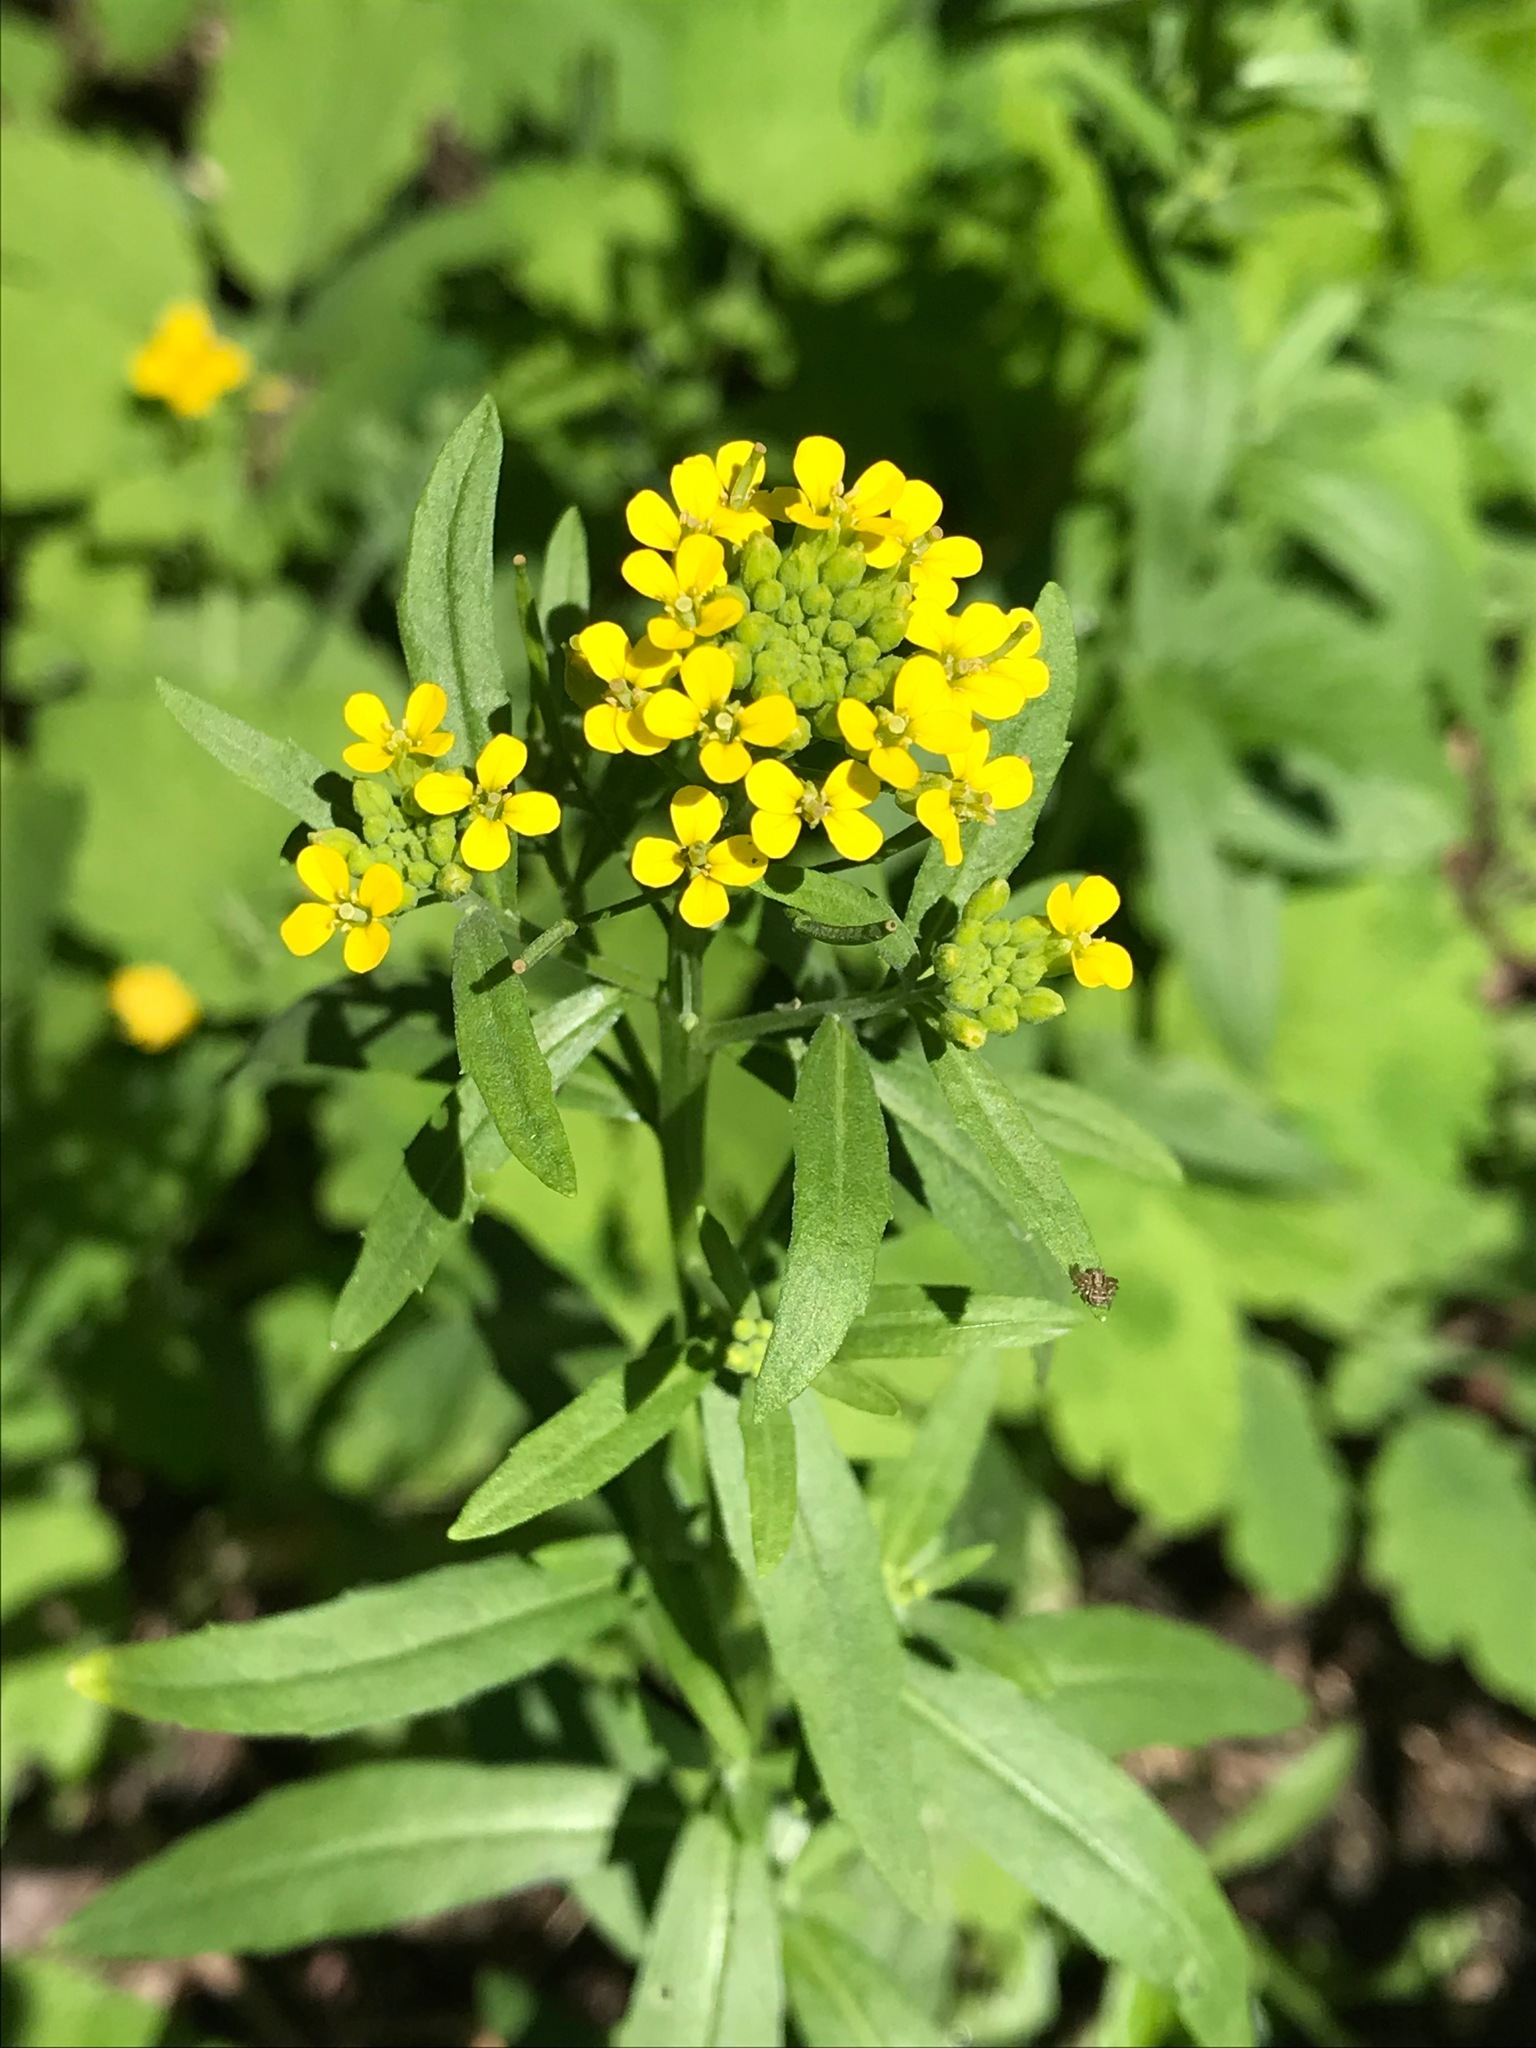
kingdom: Plantae
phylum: Tracheophyta
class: Magnoliopsida
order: Brassicales
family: Brassicaceae
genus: Erysimum
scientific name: Erysimum cheiranthoides
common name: Treacle mustard
